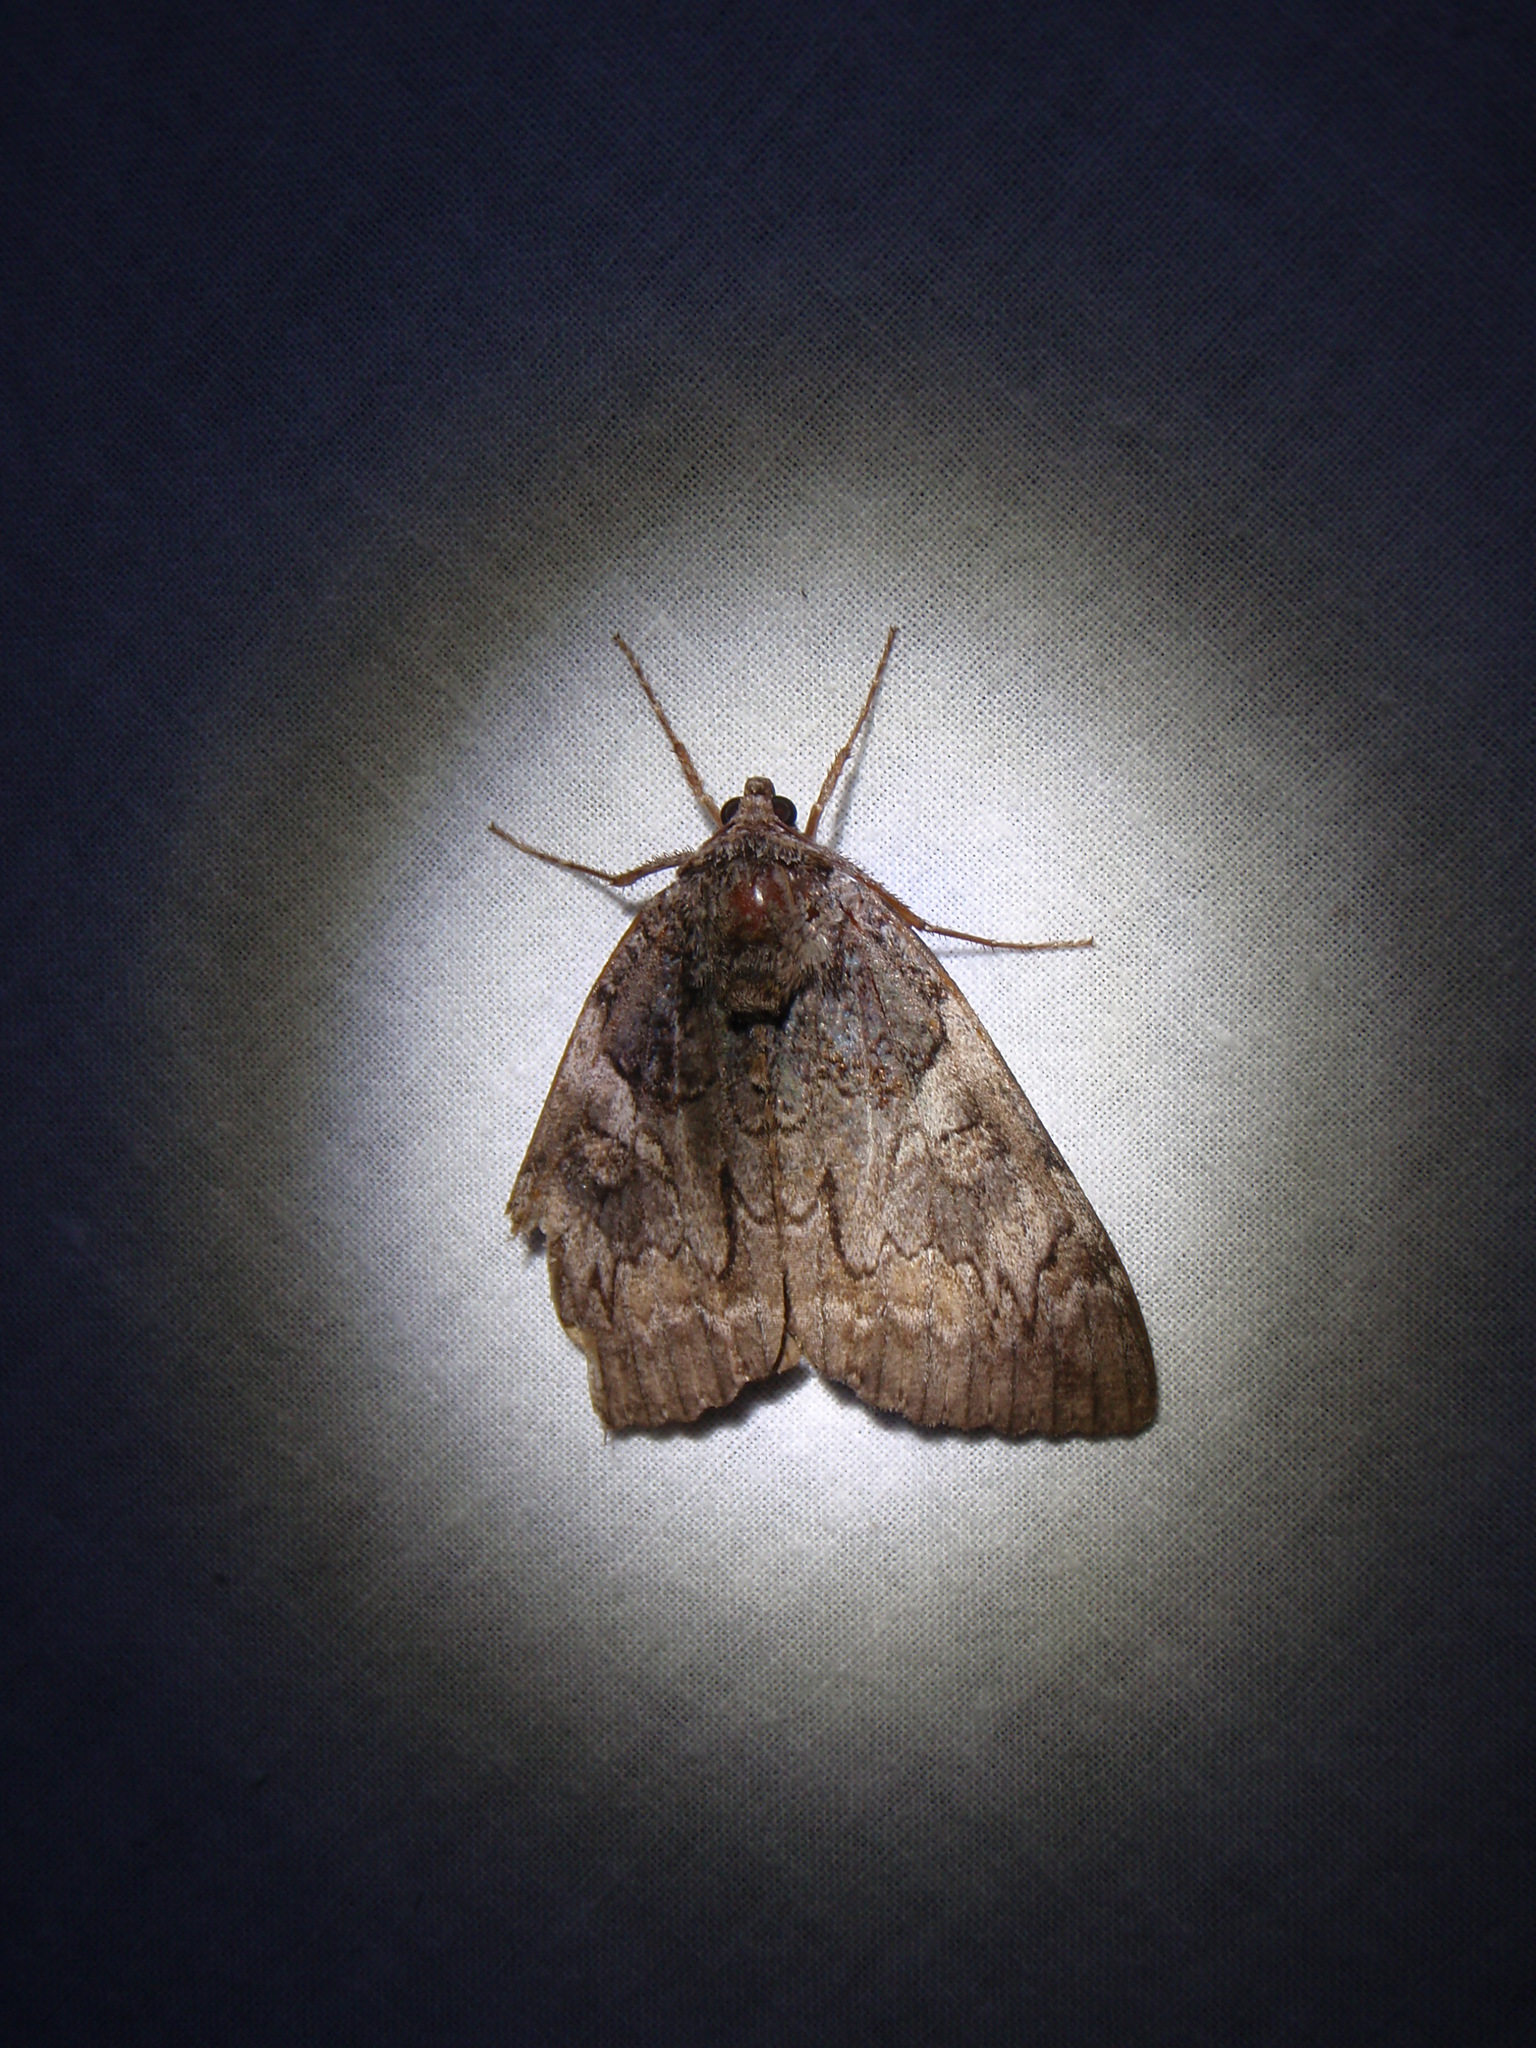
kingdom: Animalia
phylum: Arthropoda
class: Insecta
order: Lepidoptera
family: Erebidae
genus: Catocala
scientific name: Catocala piatrix
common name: The penitent underwing
